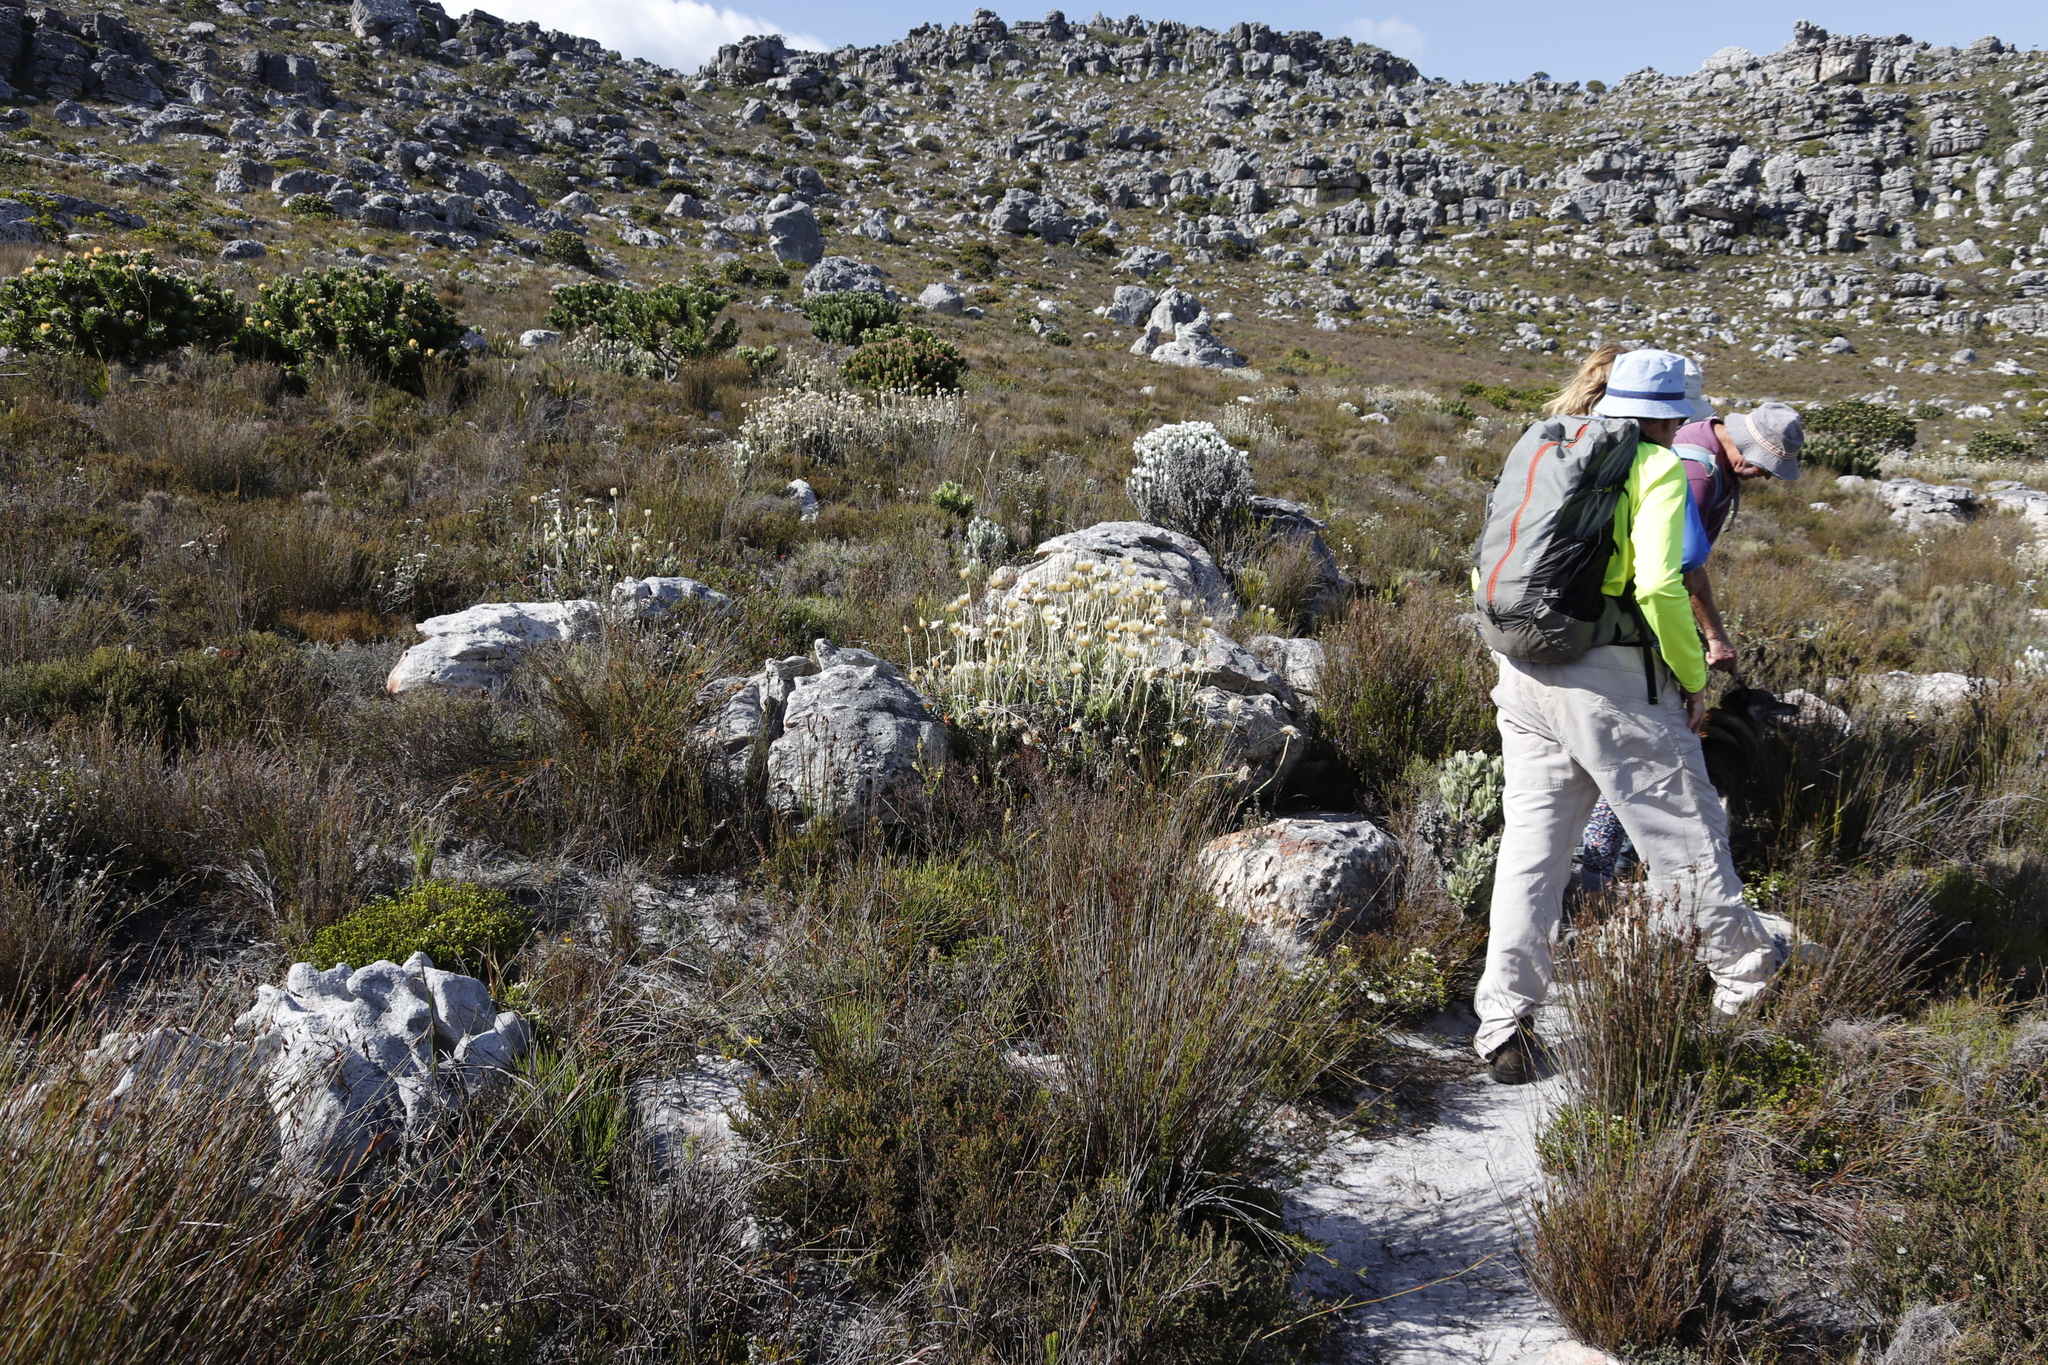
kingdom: Plantae
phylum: Tracheophyta
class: Magnoliopsida
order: Asterales
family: Asteraceae
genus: Syncarpha
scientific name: Syncarpha speciosissima
